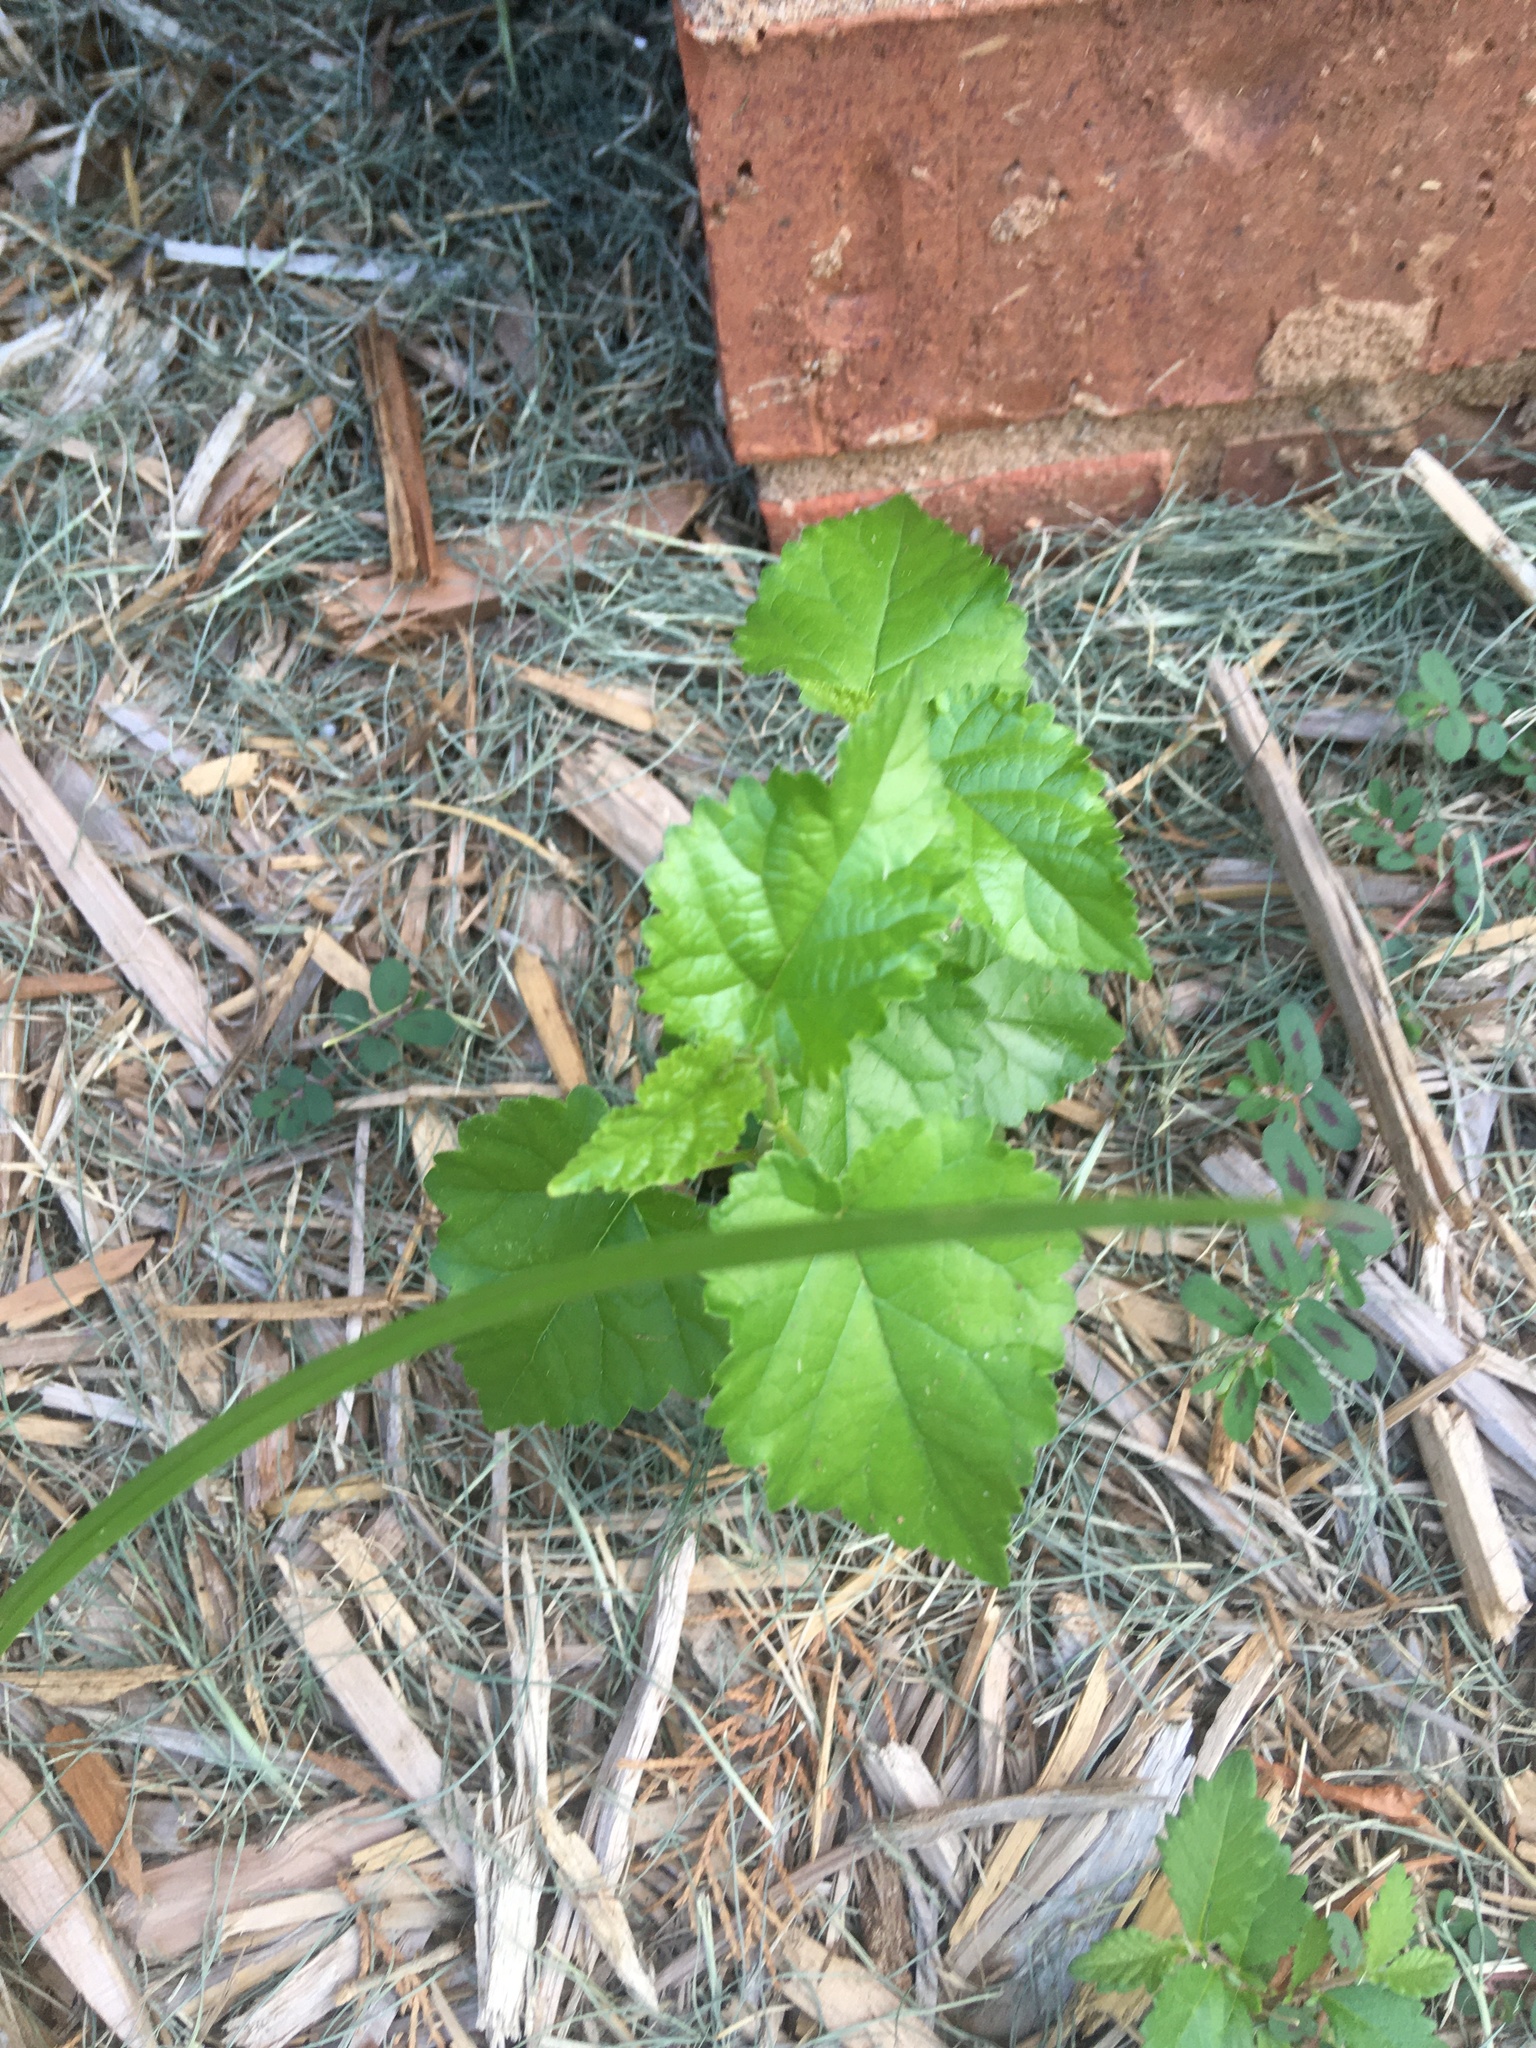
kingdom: Plantae
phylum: Tracheophyta
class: Magnoliopsida
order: Rosales
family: Moraceae
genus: Morus
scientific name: Morus alba
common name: White mulberry
